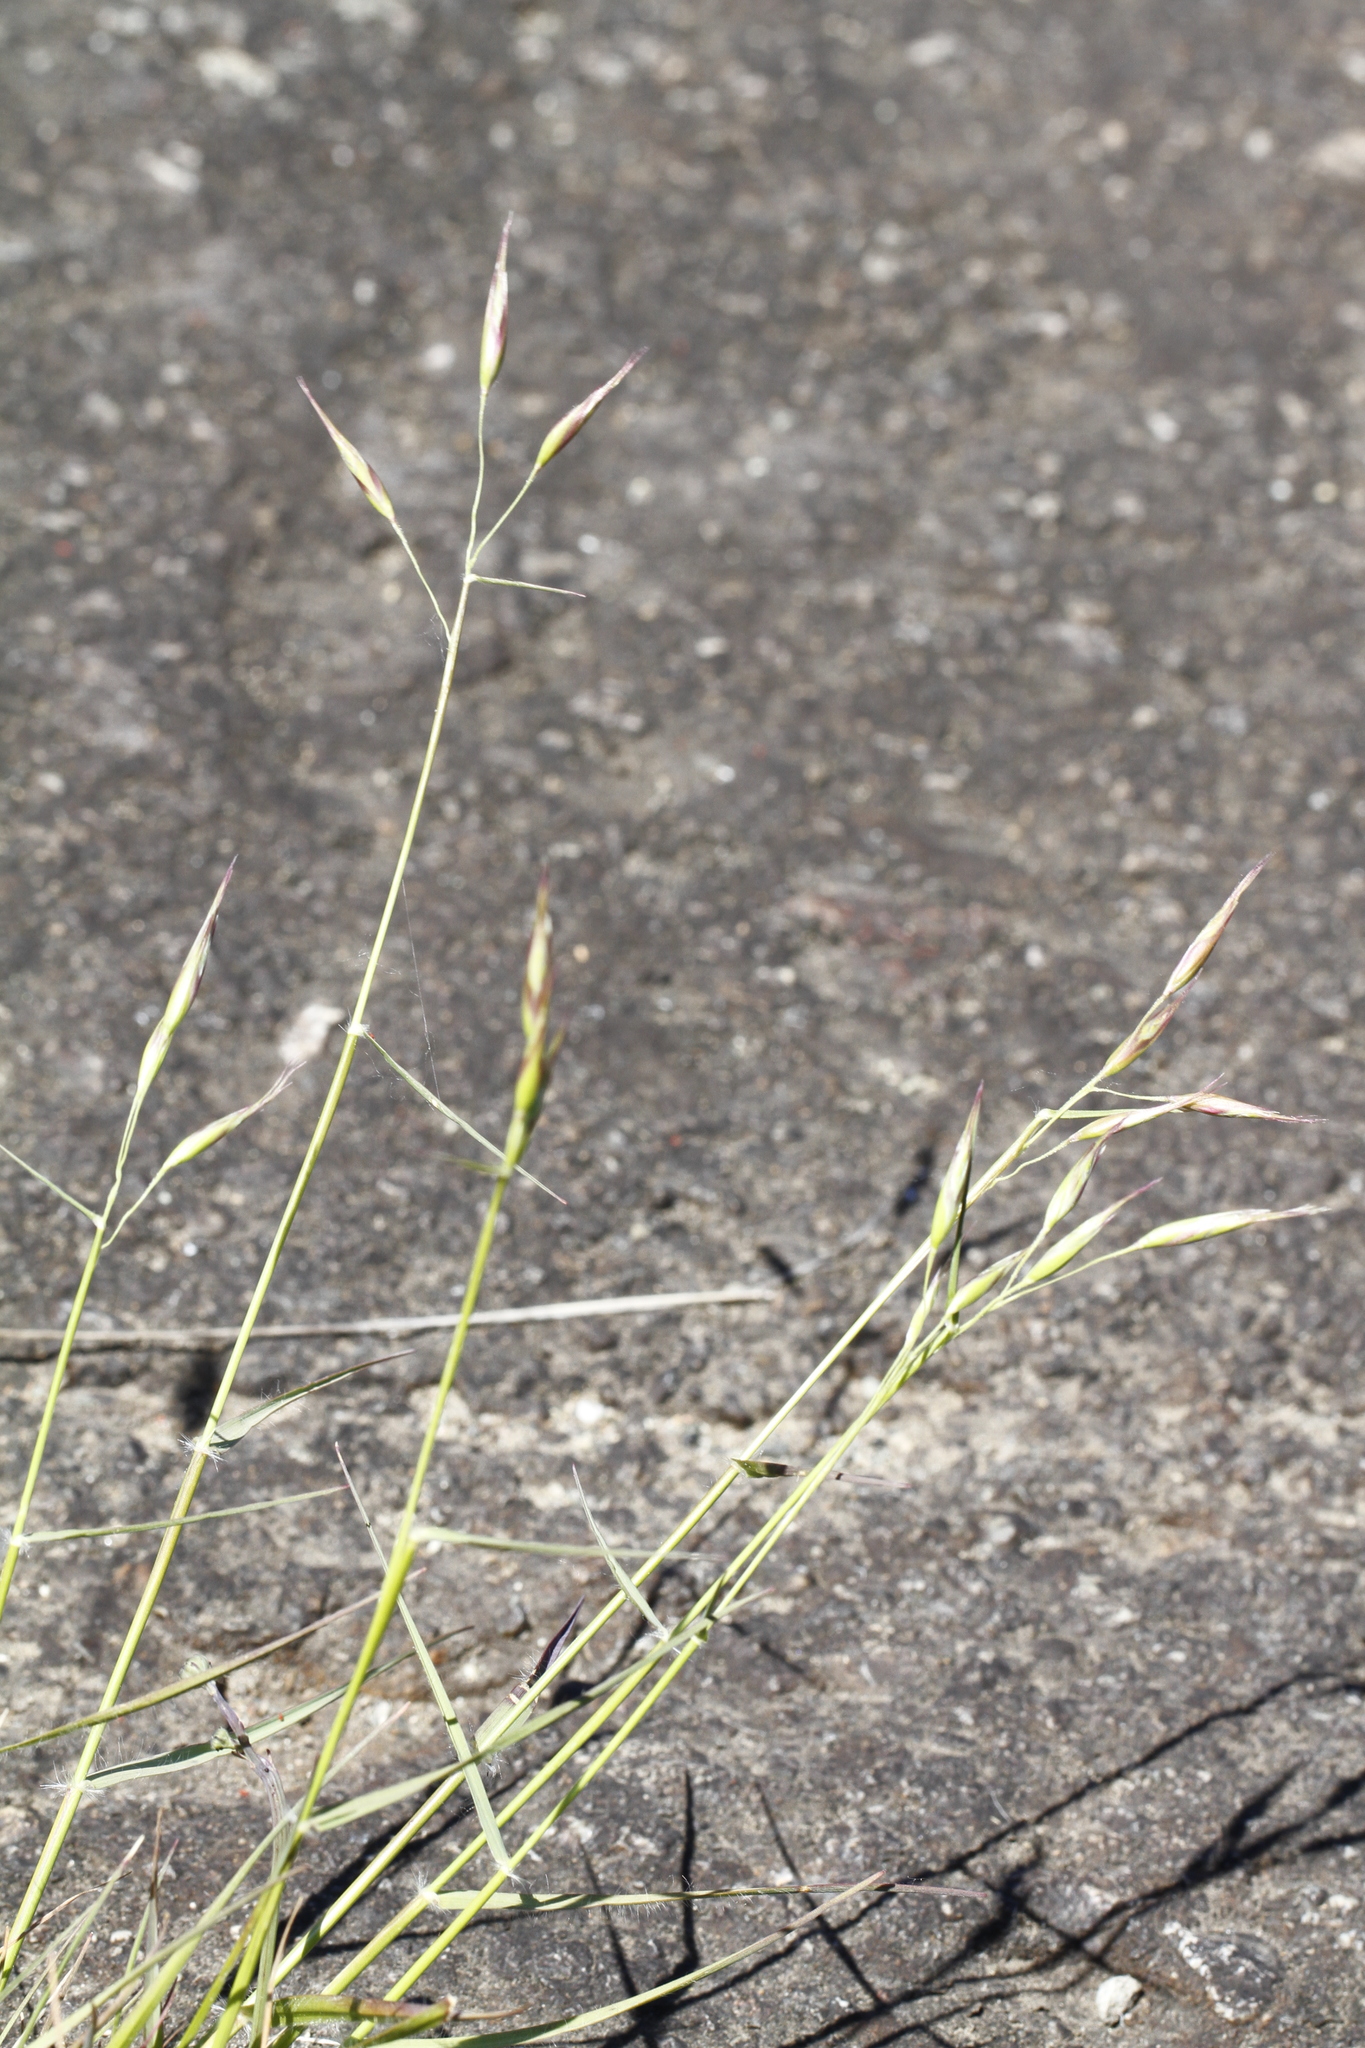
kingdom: Plantae
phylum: Tracheophyta
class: Liliopsida
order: Poales
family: Poaceae
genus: Danthonia
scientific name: Danthonia californica
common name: California oat grass
